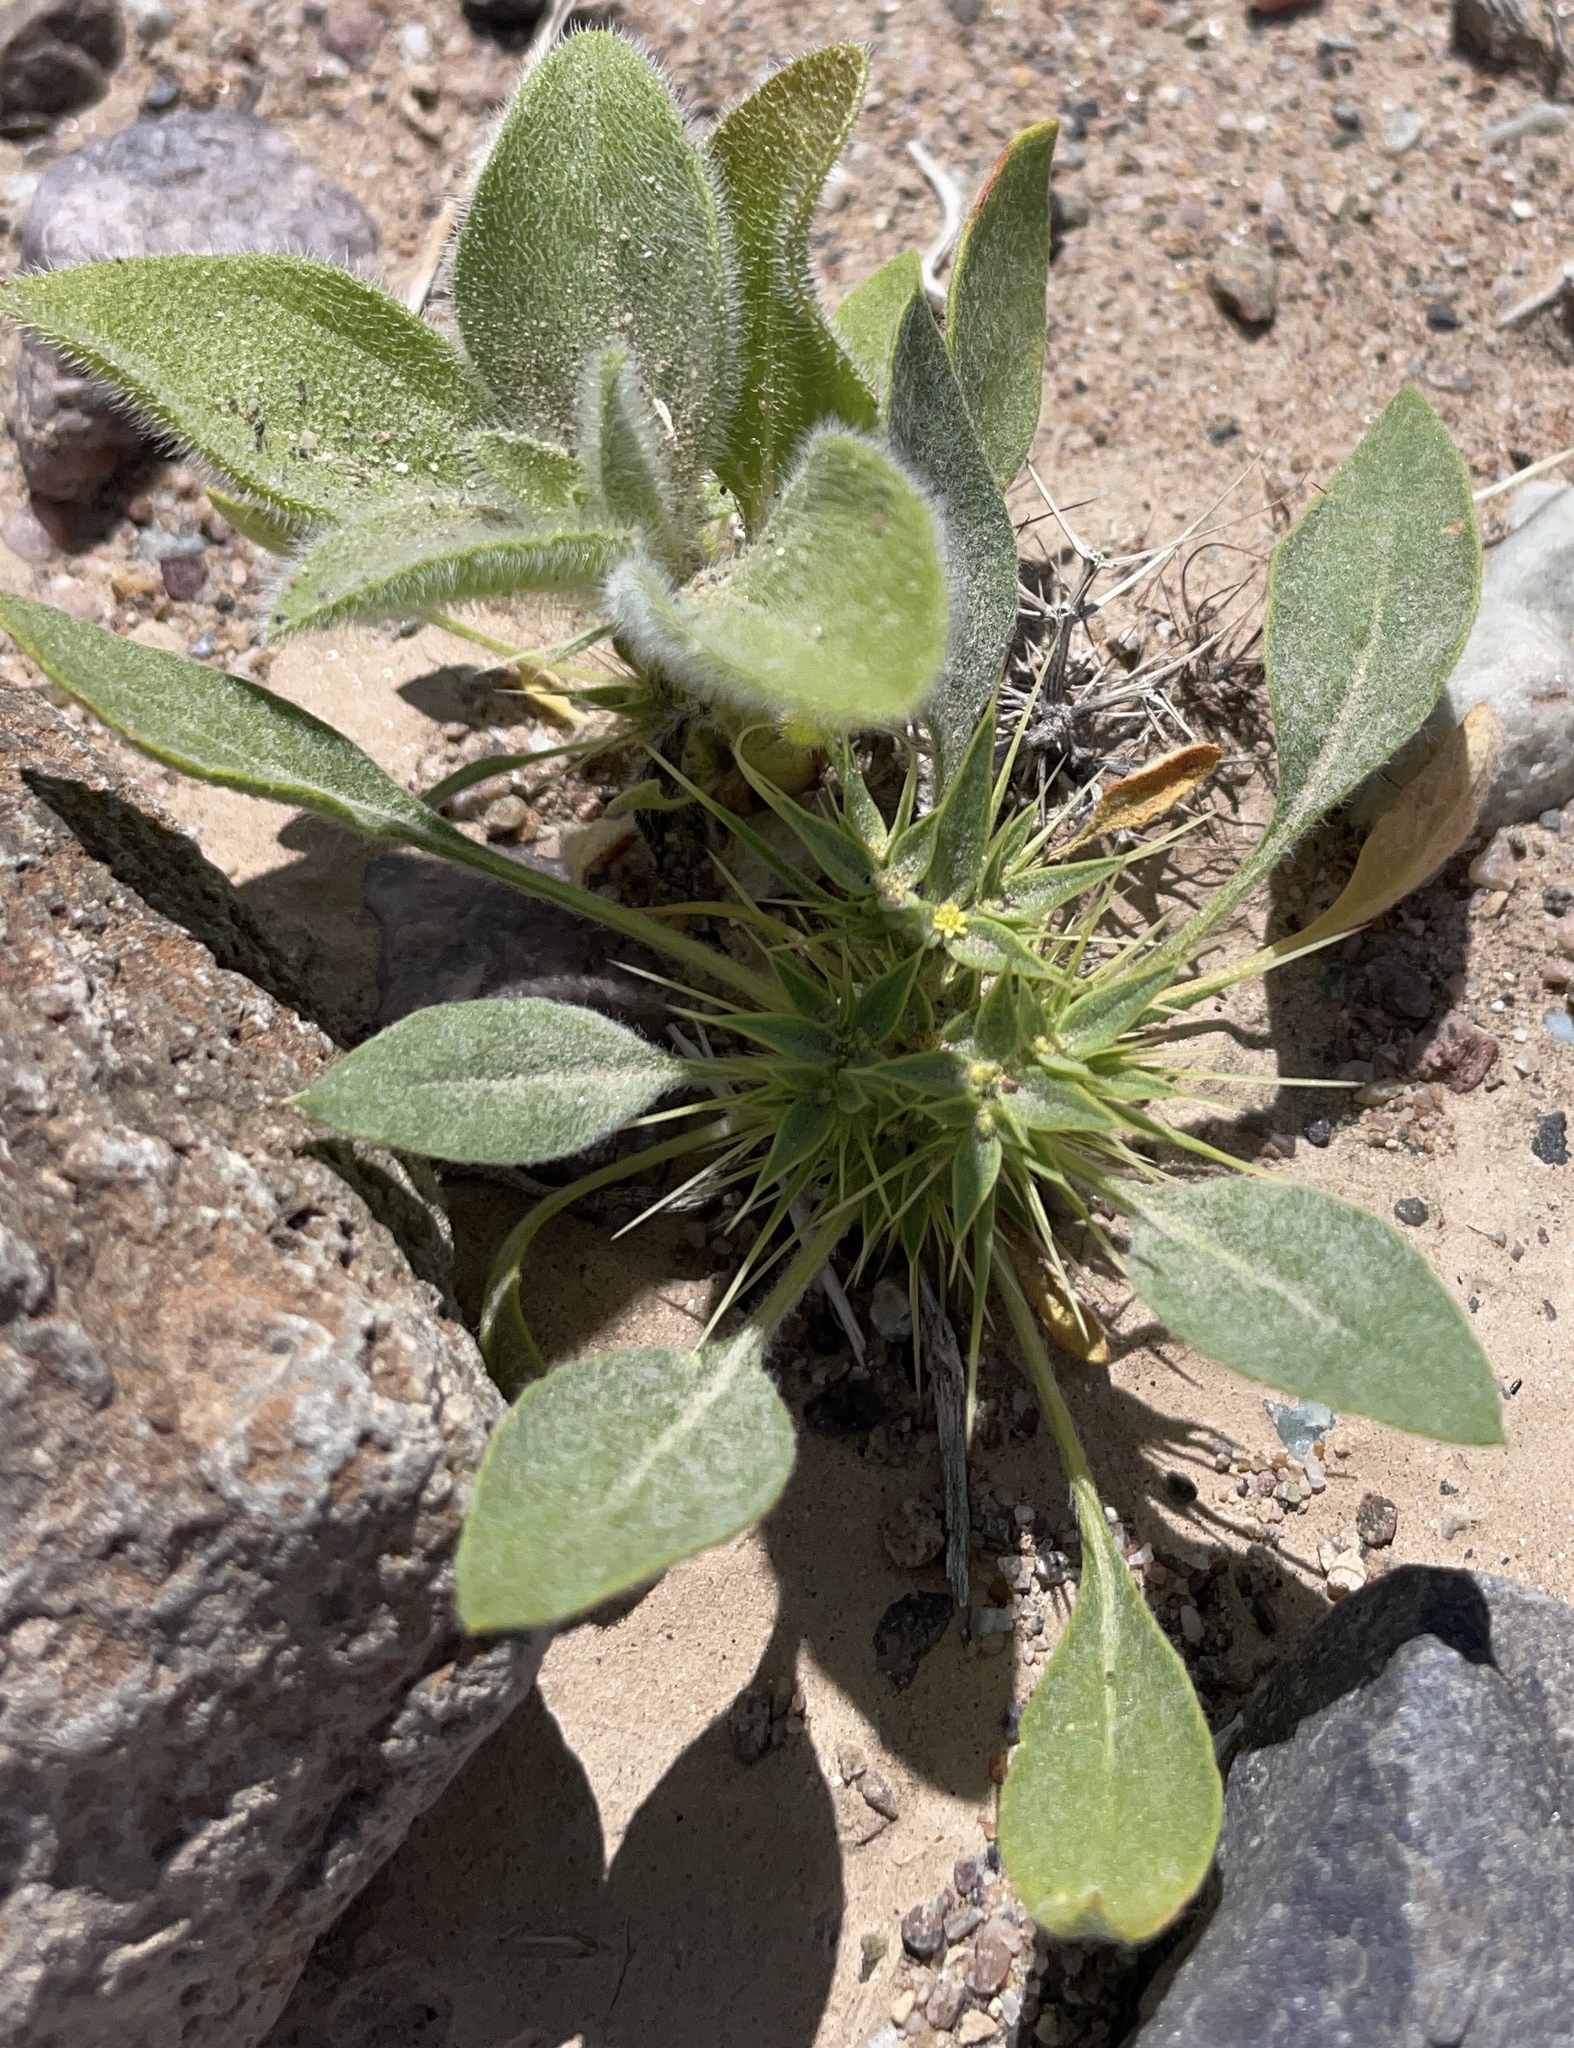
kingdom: Plantae
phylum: Tracheophyta
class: Magnoliopsida
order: Caryophyllales
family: Polygonaceae
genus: Chorizanthe
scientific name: Chorizanthe rigida
